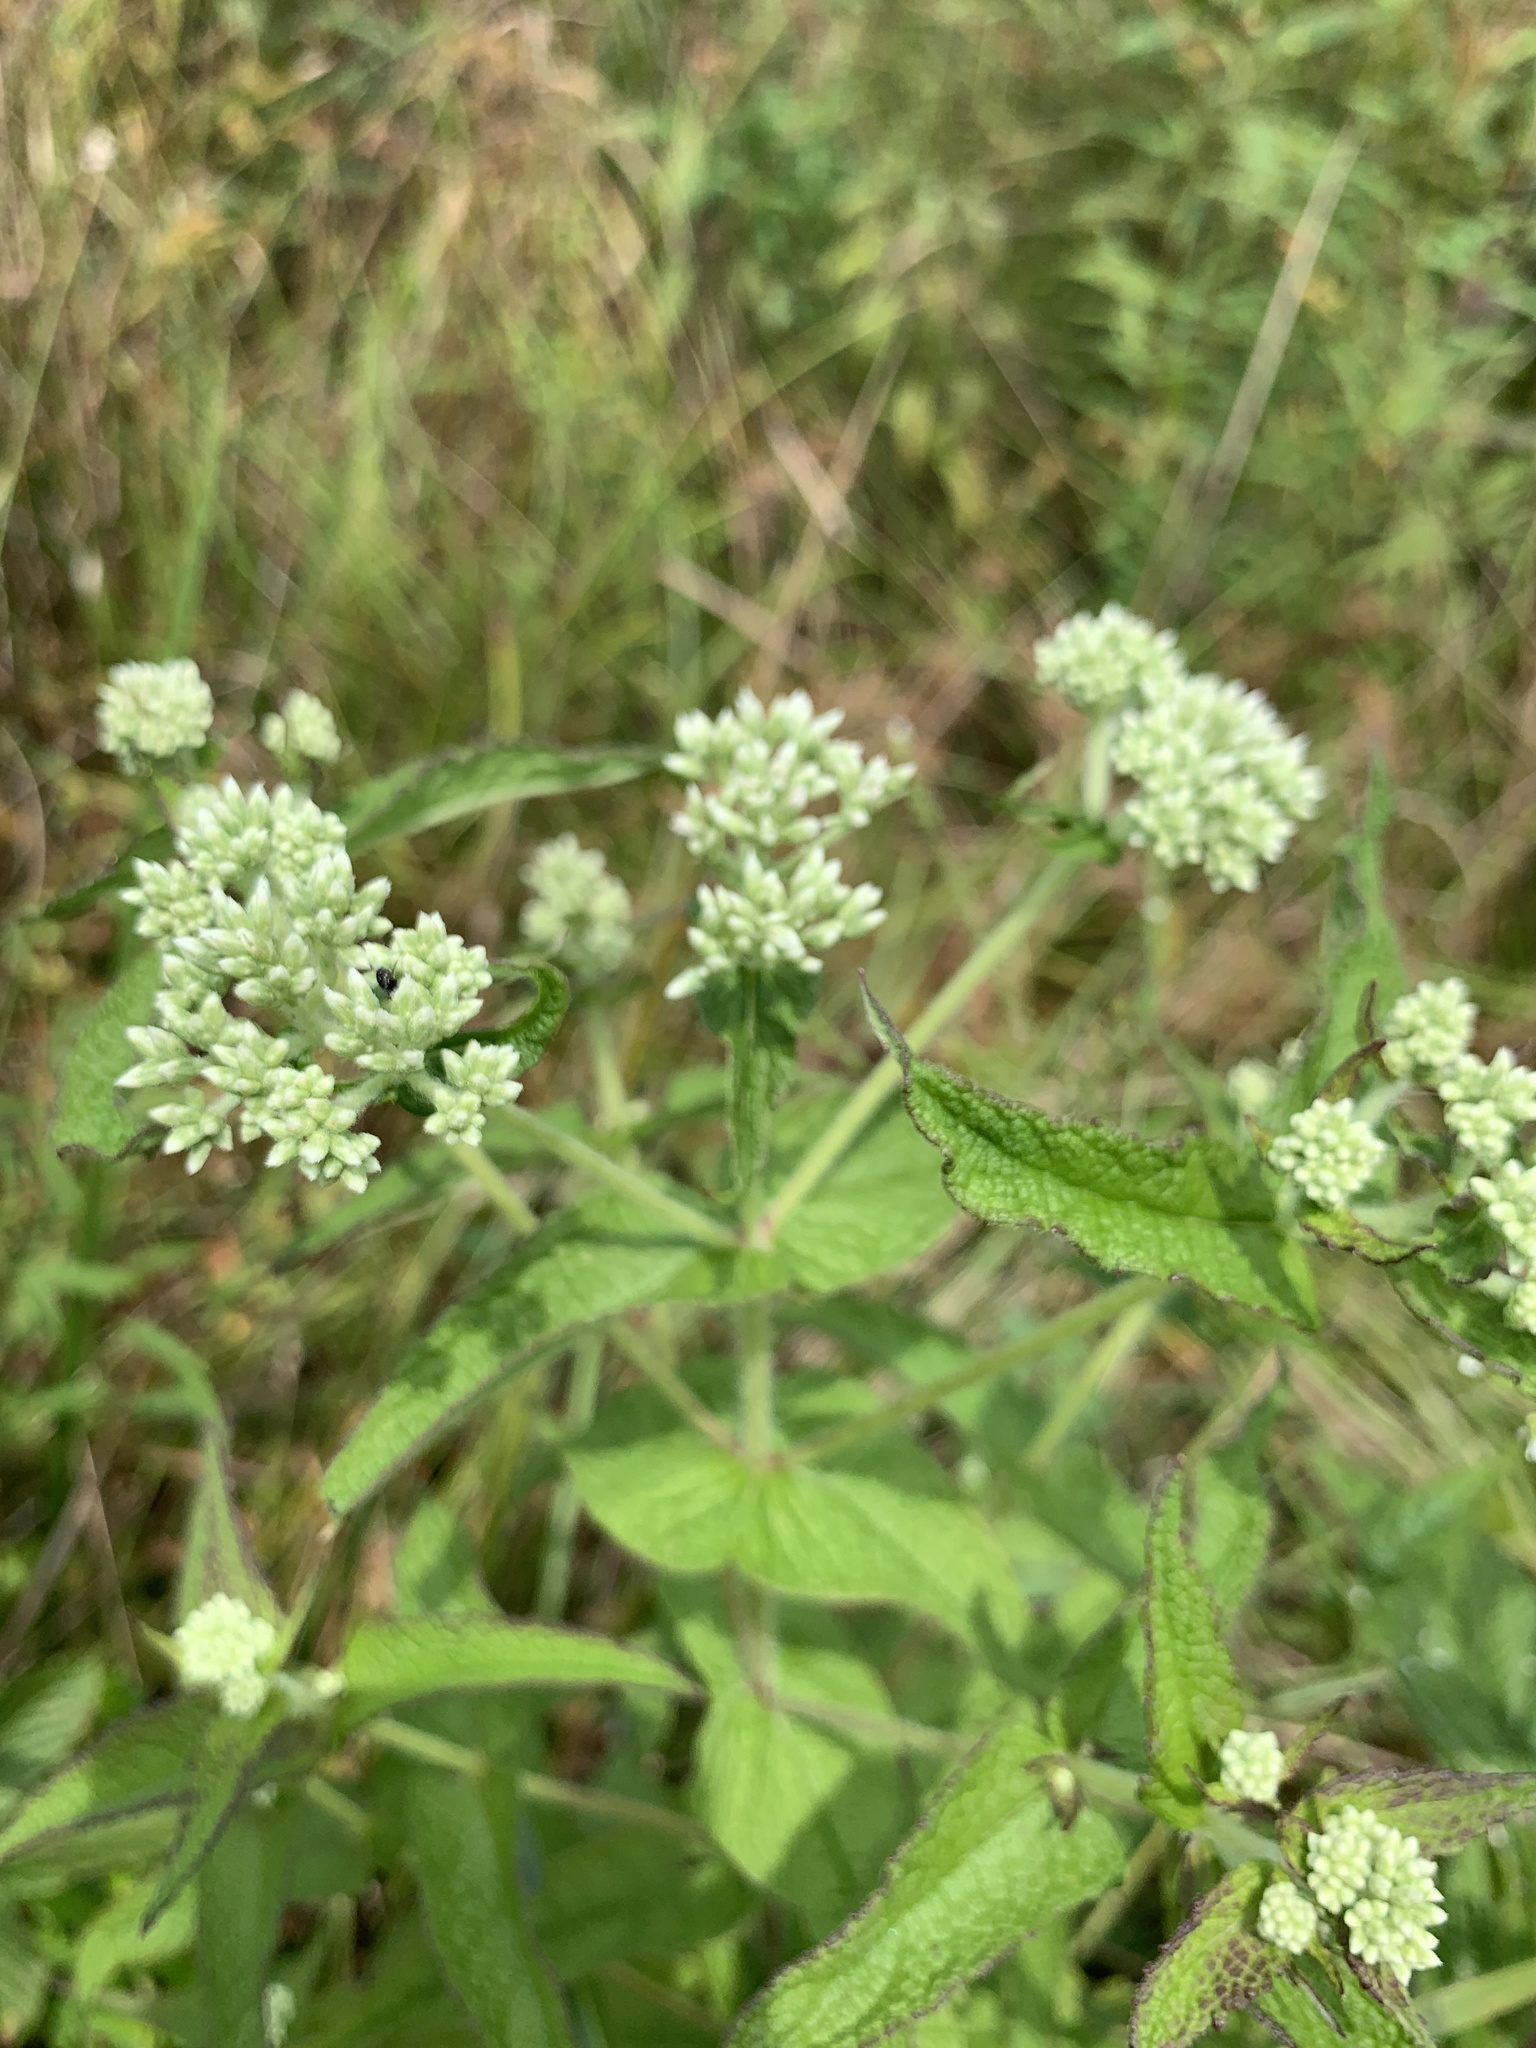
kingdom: Plantae
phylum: Tracheophyta
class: Magnoliopsida
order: Asterales
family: Asteraceae
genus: Eupatorium
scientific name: Eupatorium perfoliatum
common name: Boneset
